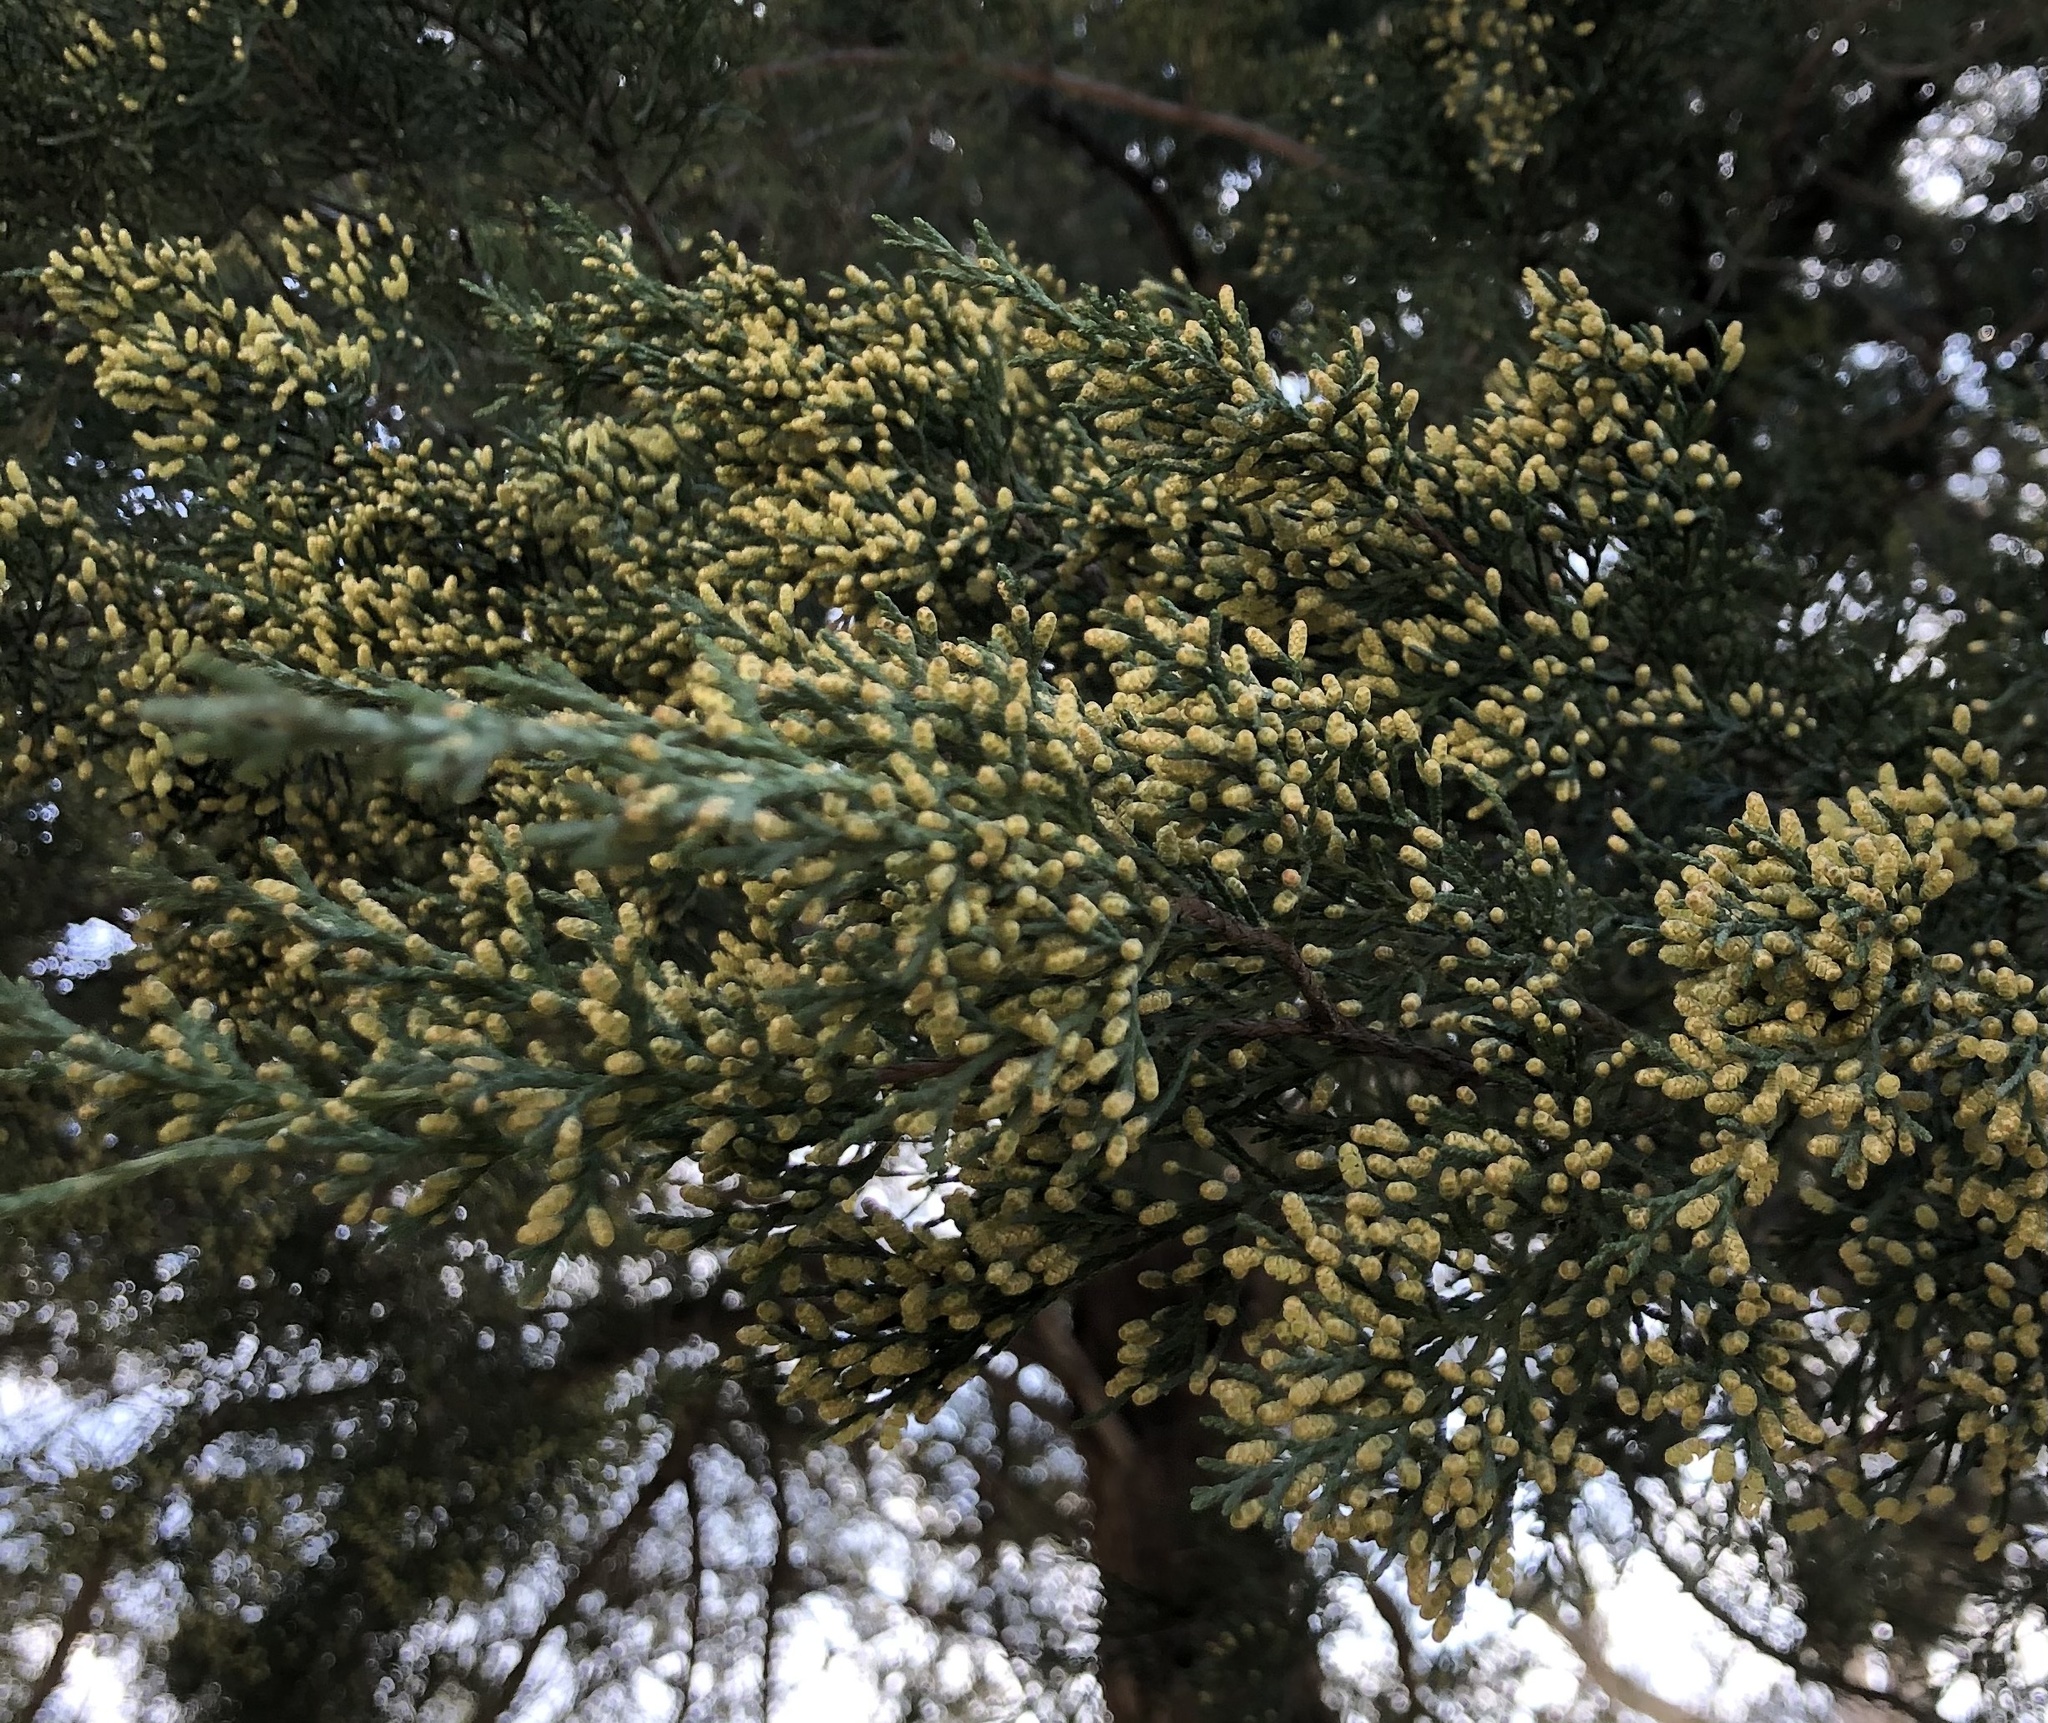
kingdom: Plantae
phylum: Tracheophyta
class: Pinopsida
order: Pinales
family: Cupressaceae
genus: Juniperus
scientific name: Juniperus virginiana
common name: Red juniper
